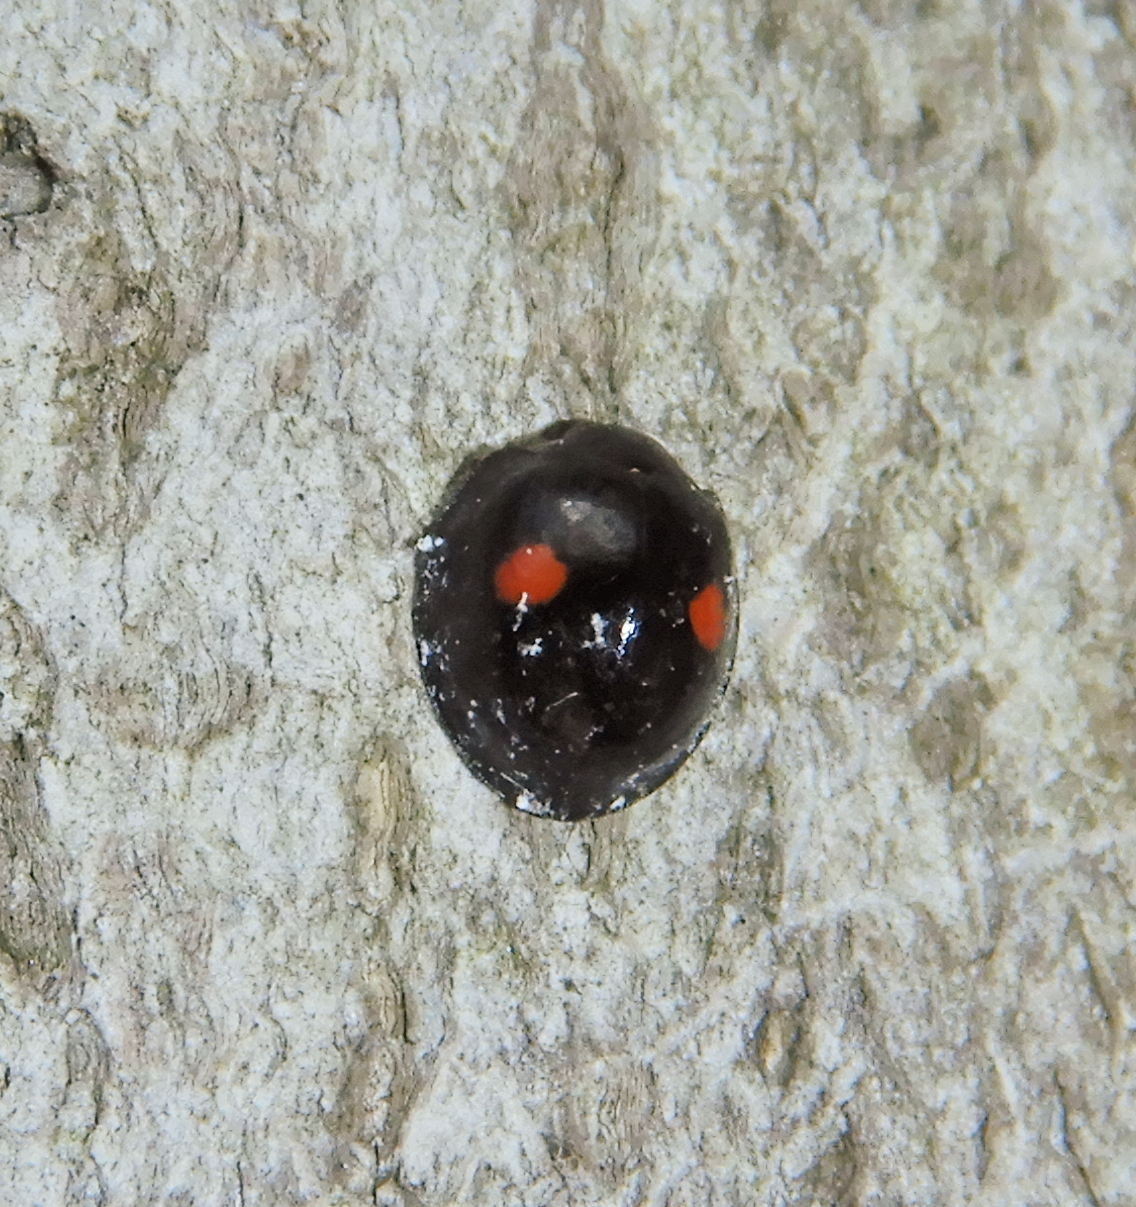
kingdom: Animalia
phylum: Arthropoda
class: Insecta
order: Coleoptera
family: Coccinellidae
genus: Chilocorus
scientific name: Chilocorus stigma
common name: Twicestabbed lady beetle
